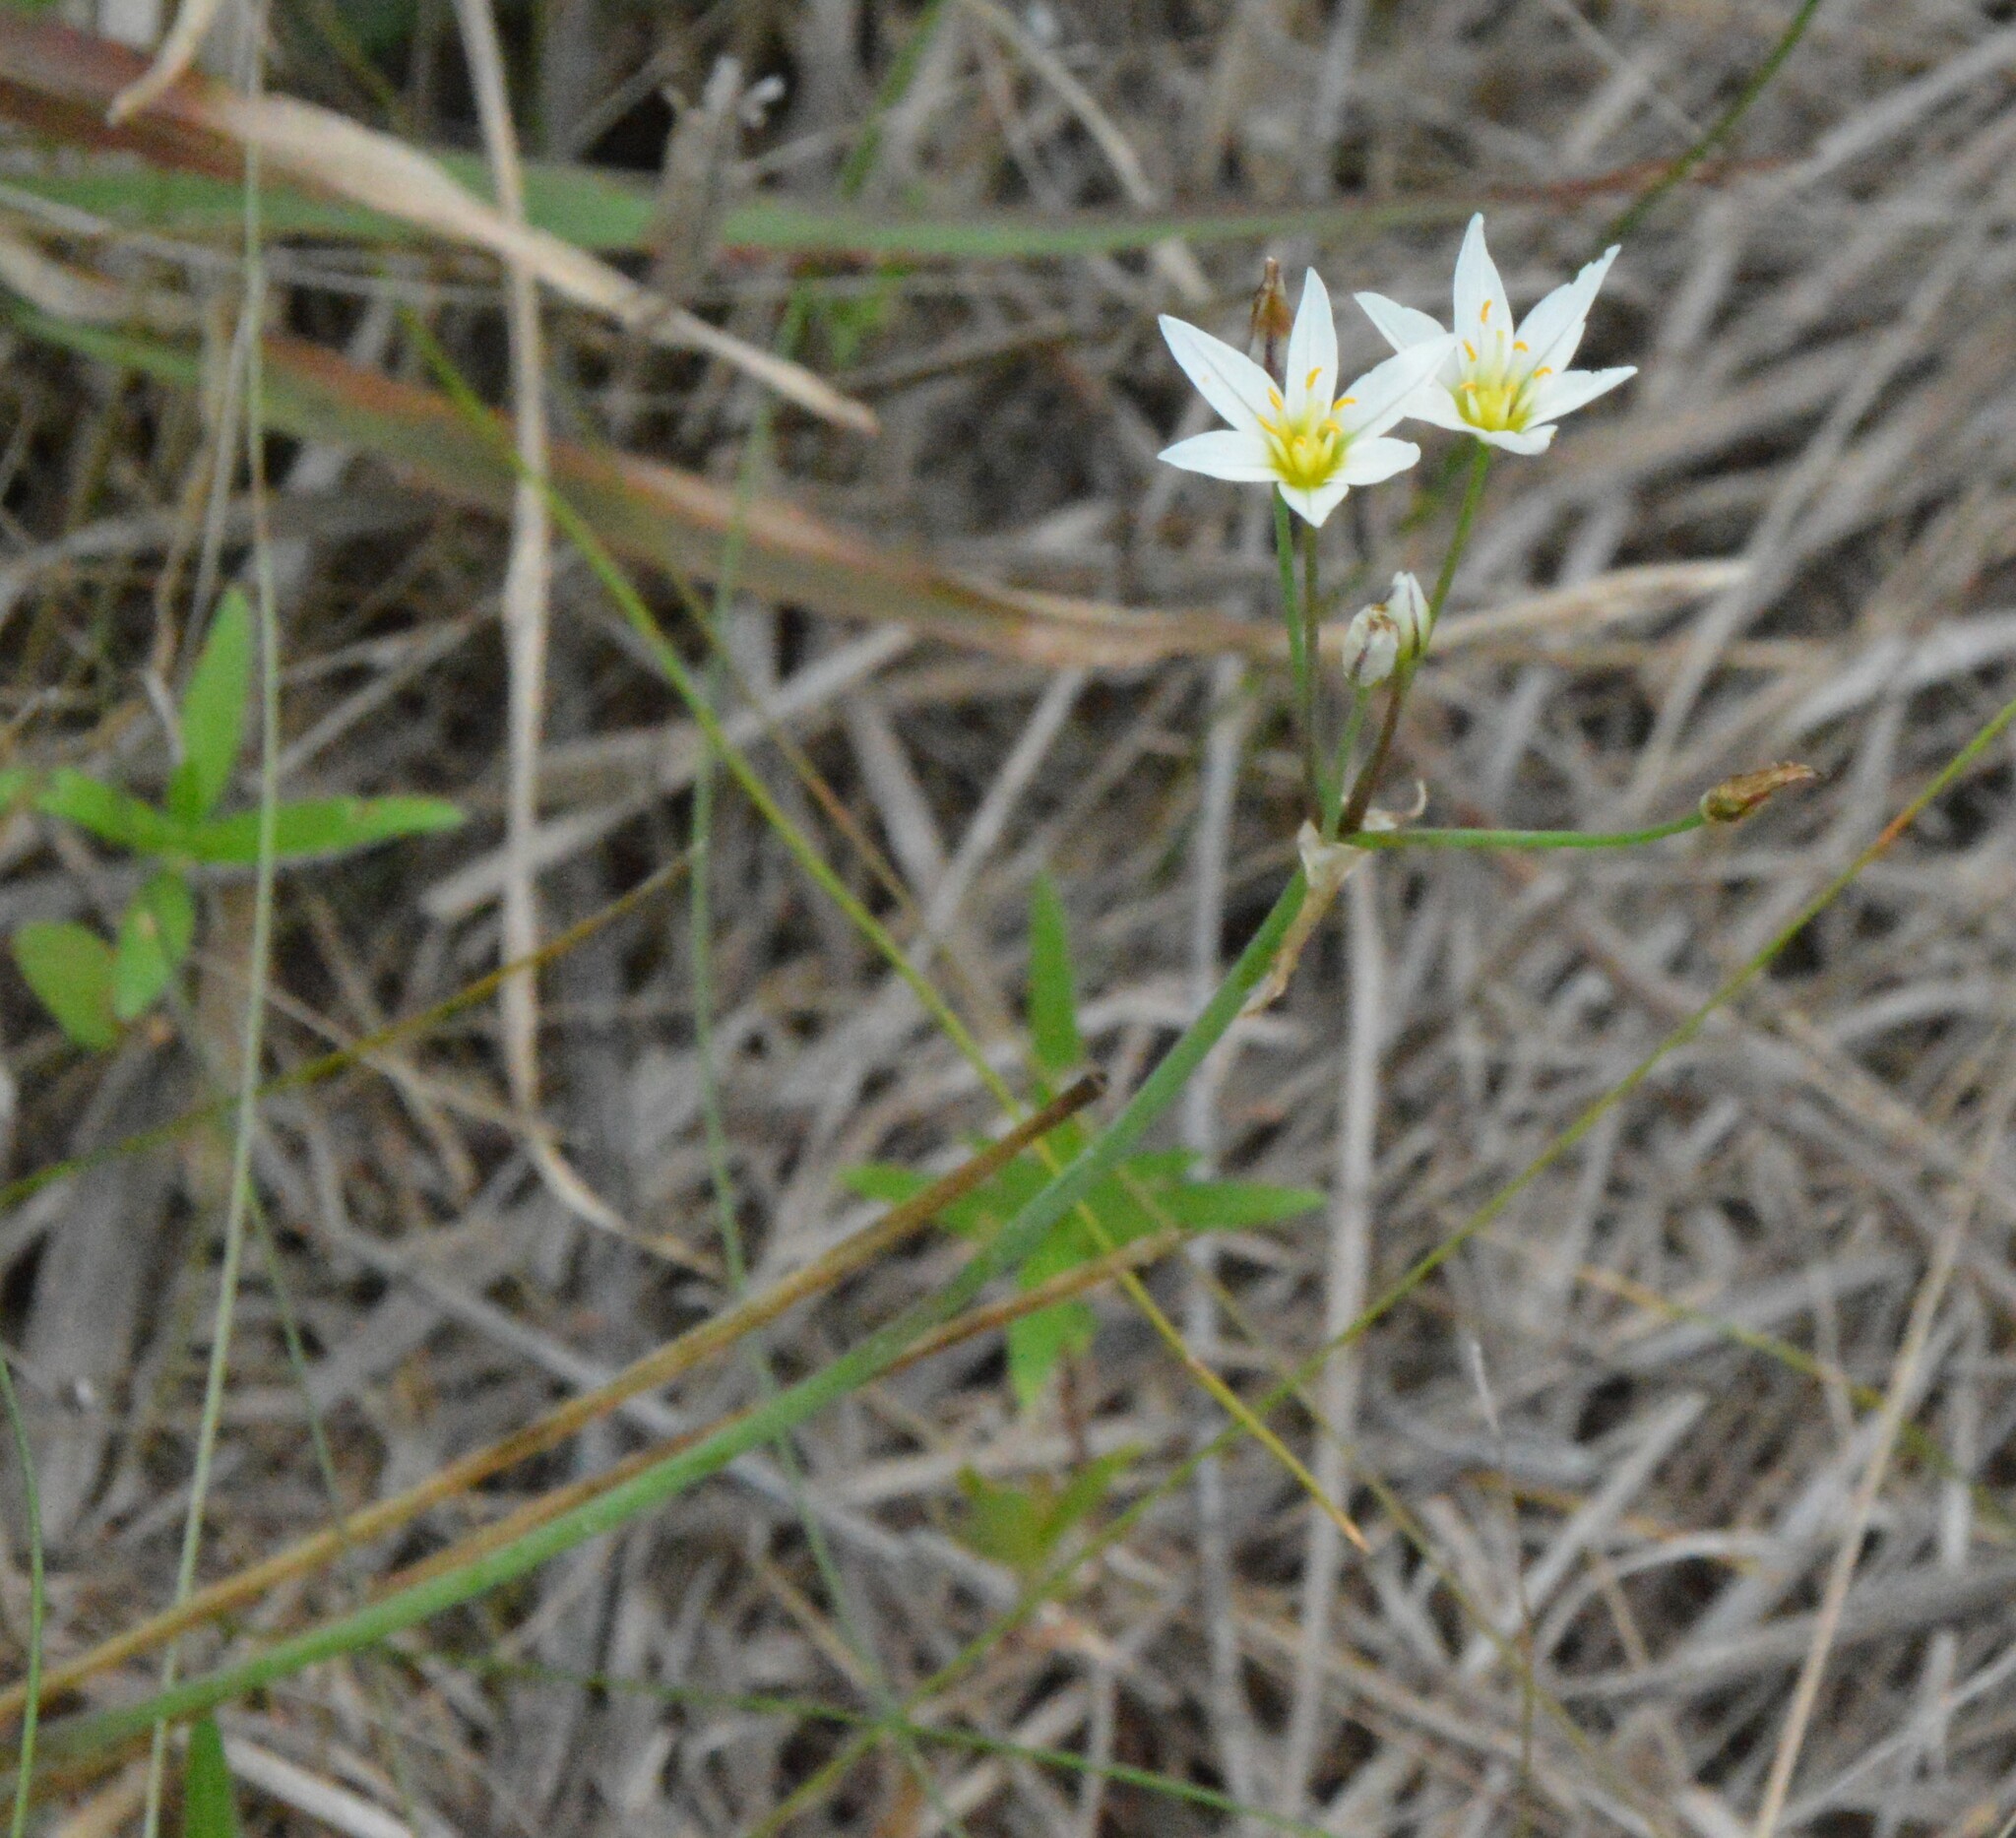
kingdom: Plantae
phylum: Tracheophyta
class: Liliopsida
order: Asparagales
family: Amaryllidaceae
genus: Nothoscordum
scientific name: Nothoscordum bivalve
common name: Crow-poison
